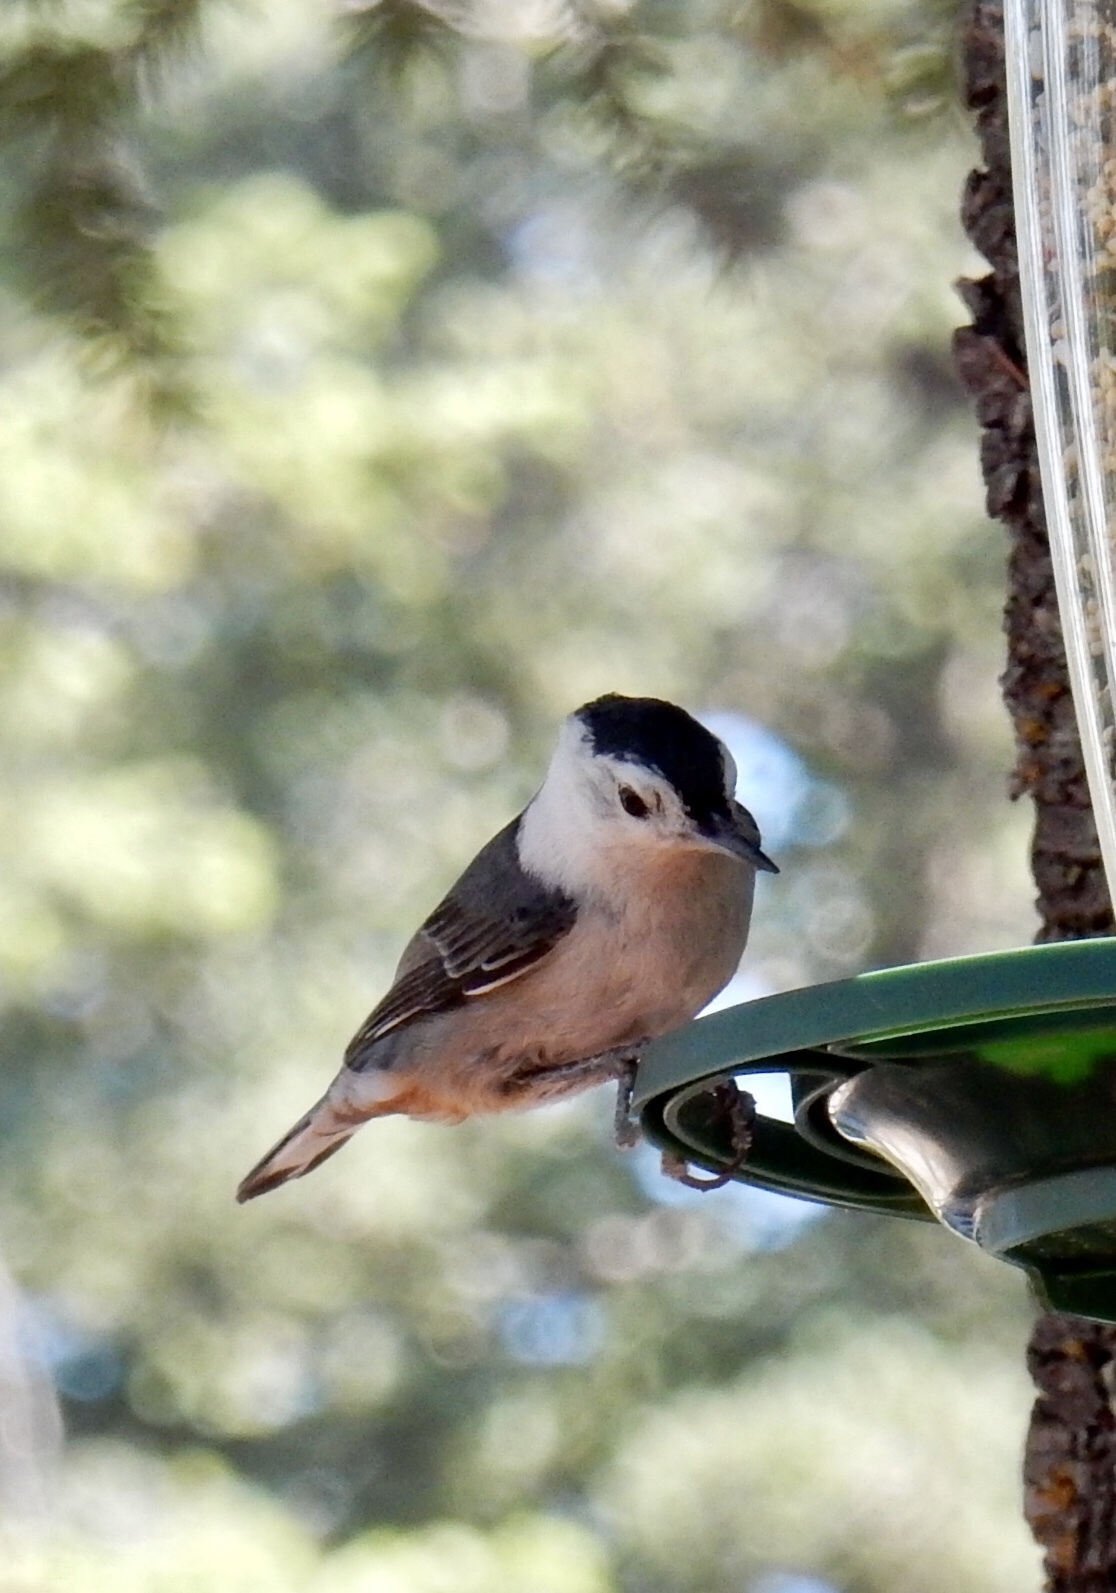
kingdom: Animalia
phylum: Chordata
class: Aves
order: Passeriformes
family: Sittidae
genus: Sitta
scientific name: Sitta carolinensis
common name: White-breasted nuthatch
